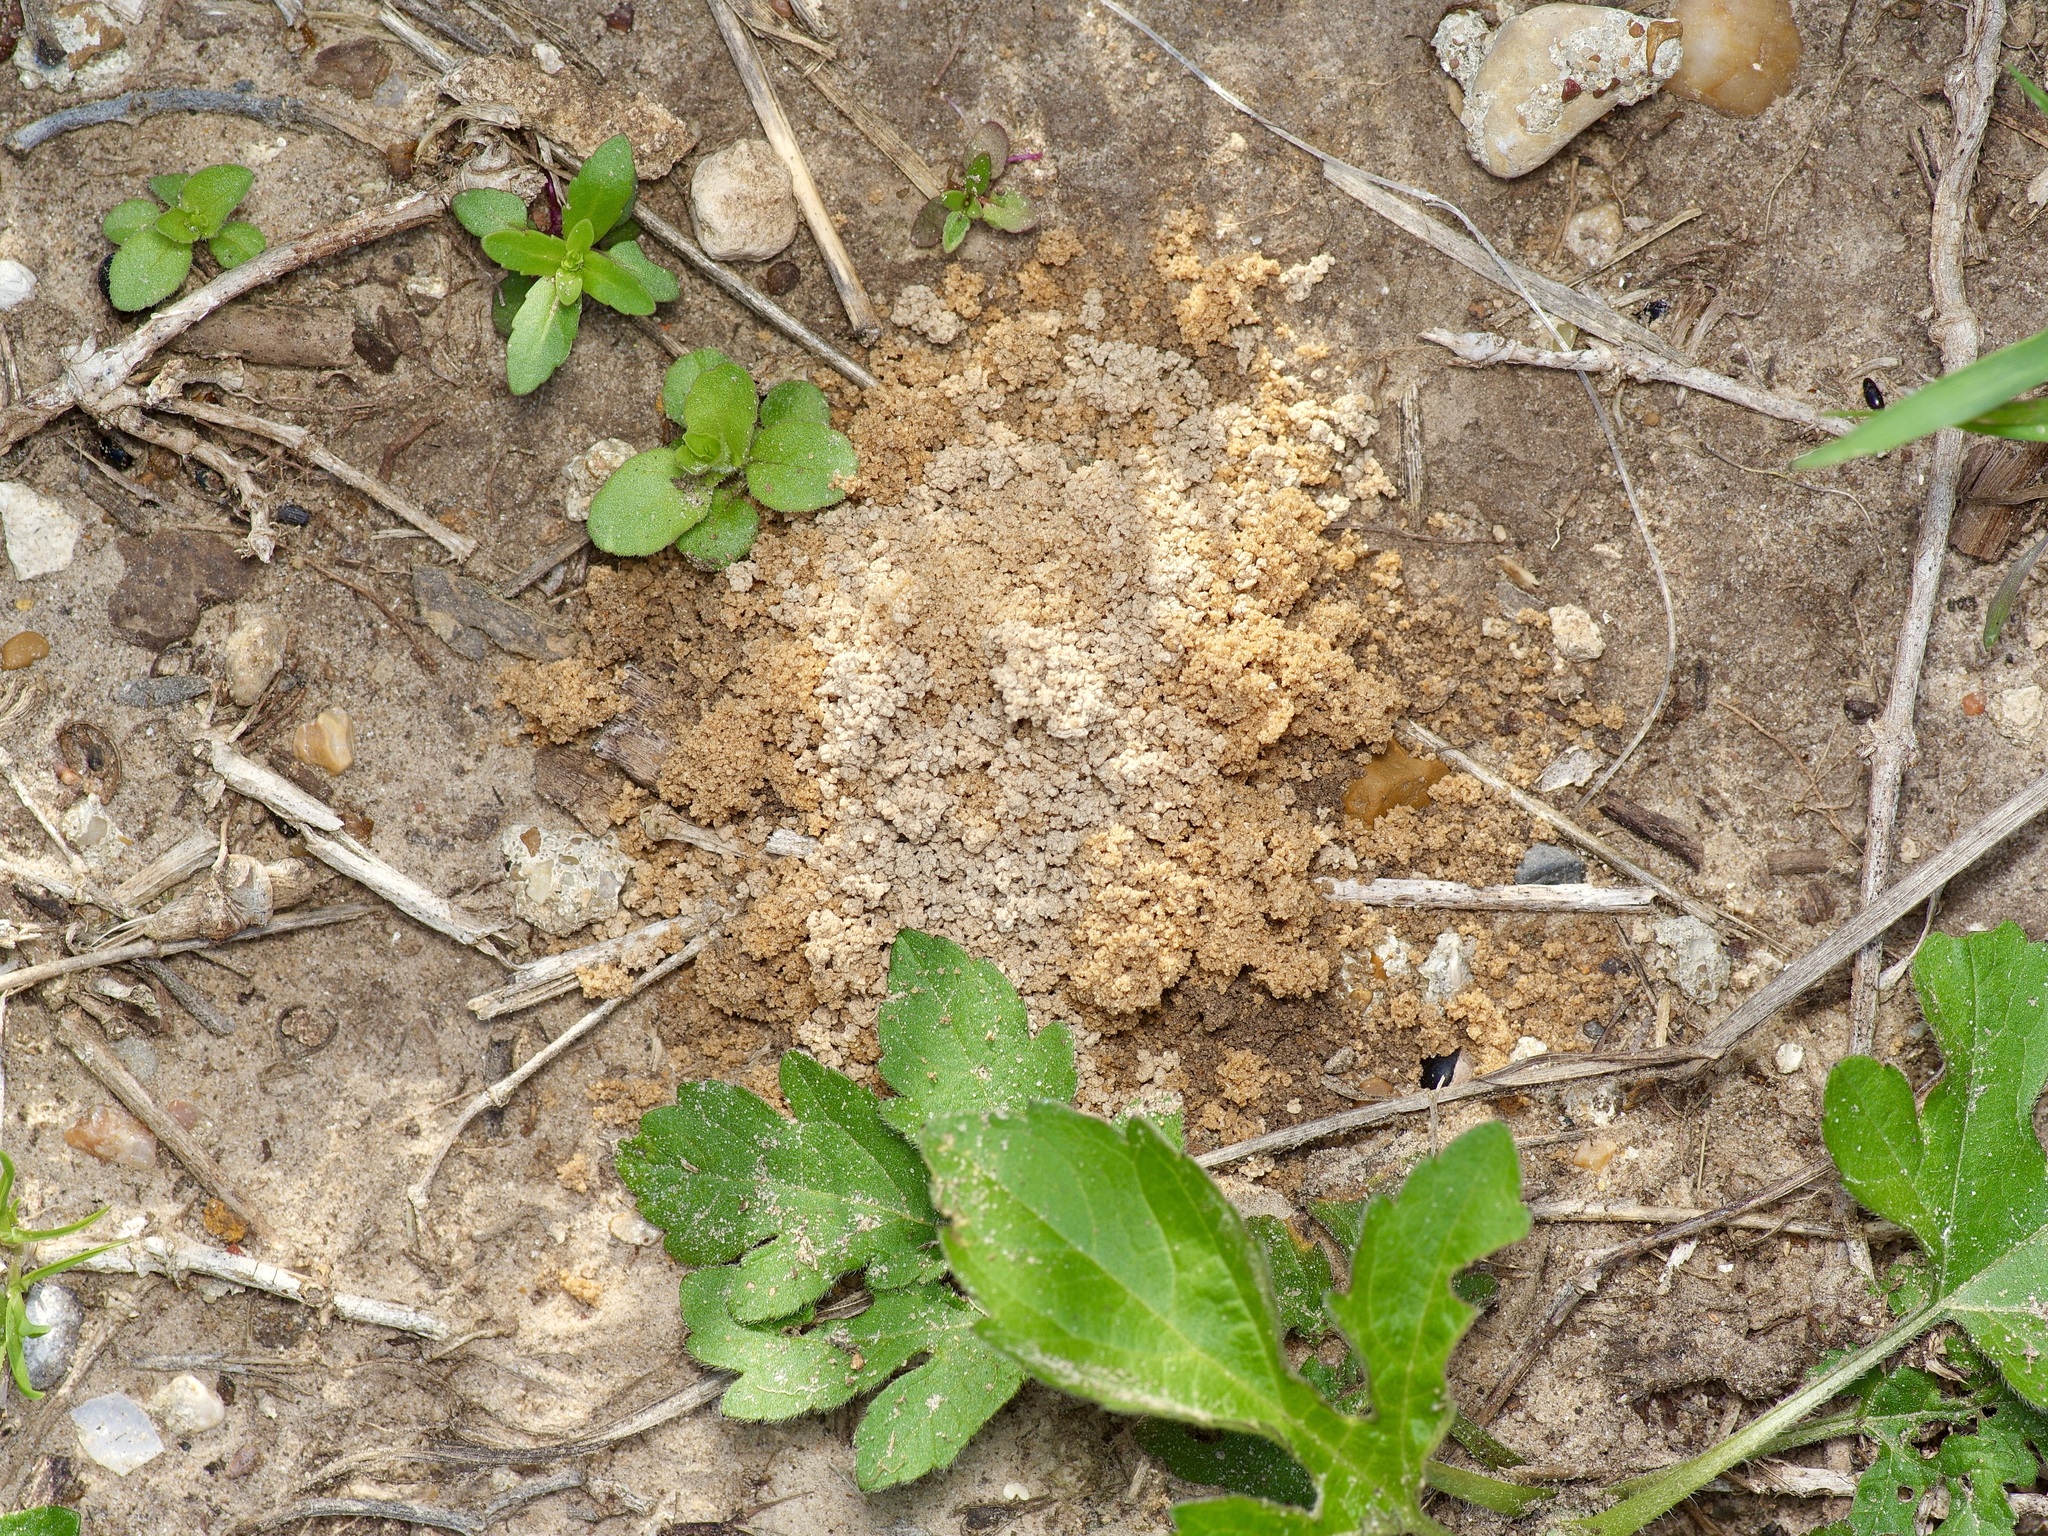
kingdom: Animalia
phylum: Arthropoda
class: Insecta
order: Hymenoptera
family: Formicidae
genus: Solenopsis
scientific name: Solenopsis invicta
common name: Red imported fire ant
